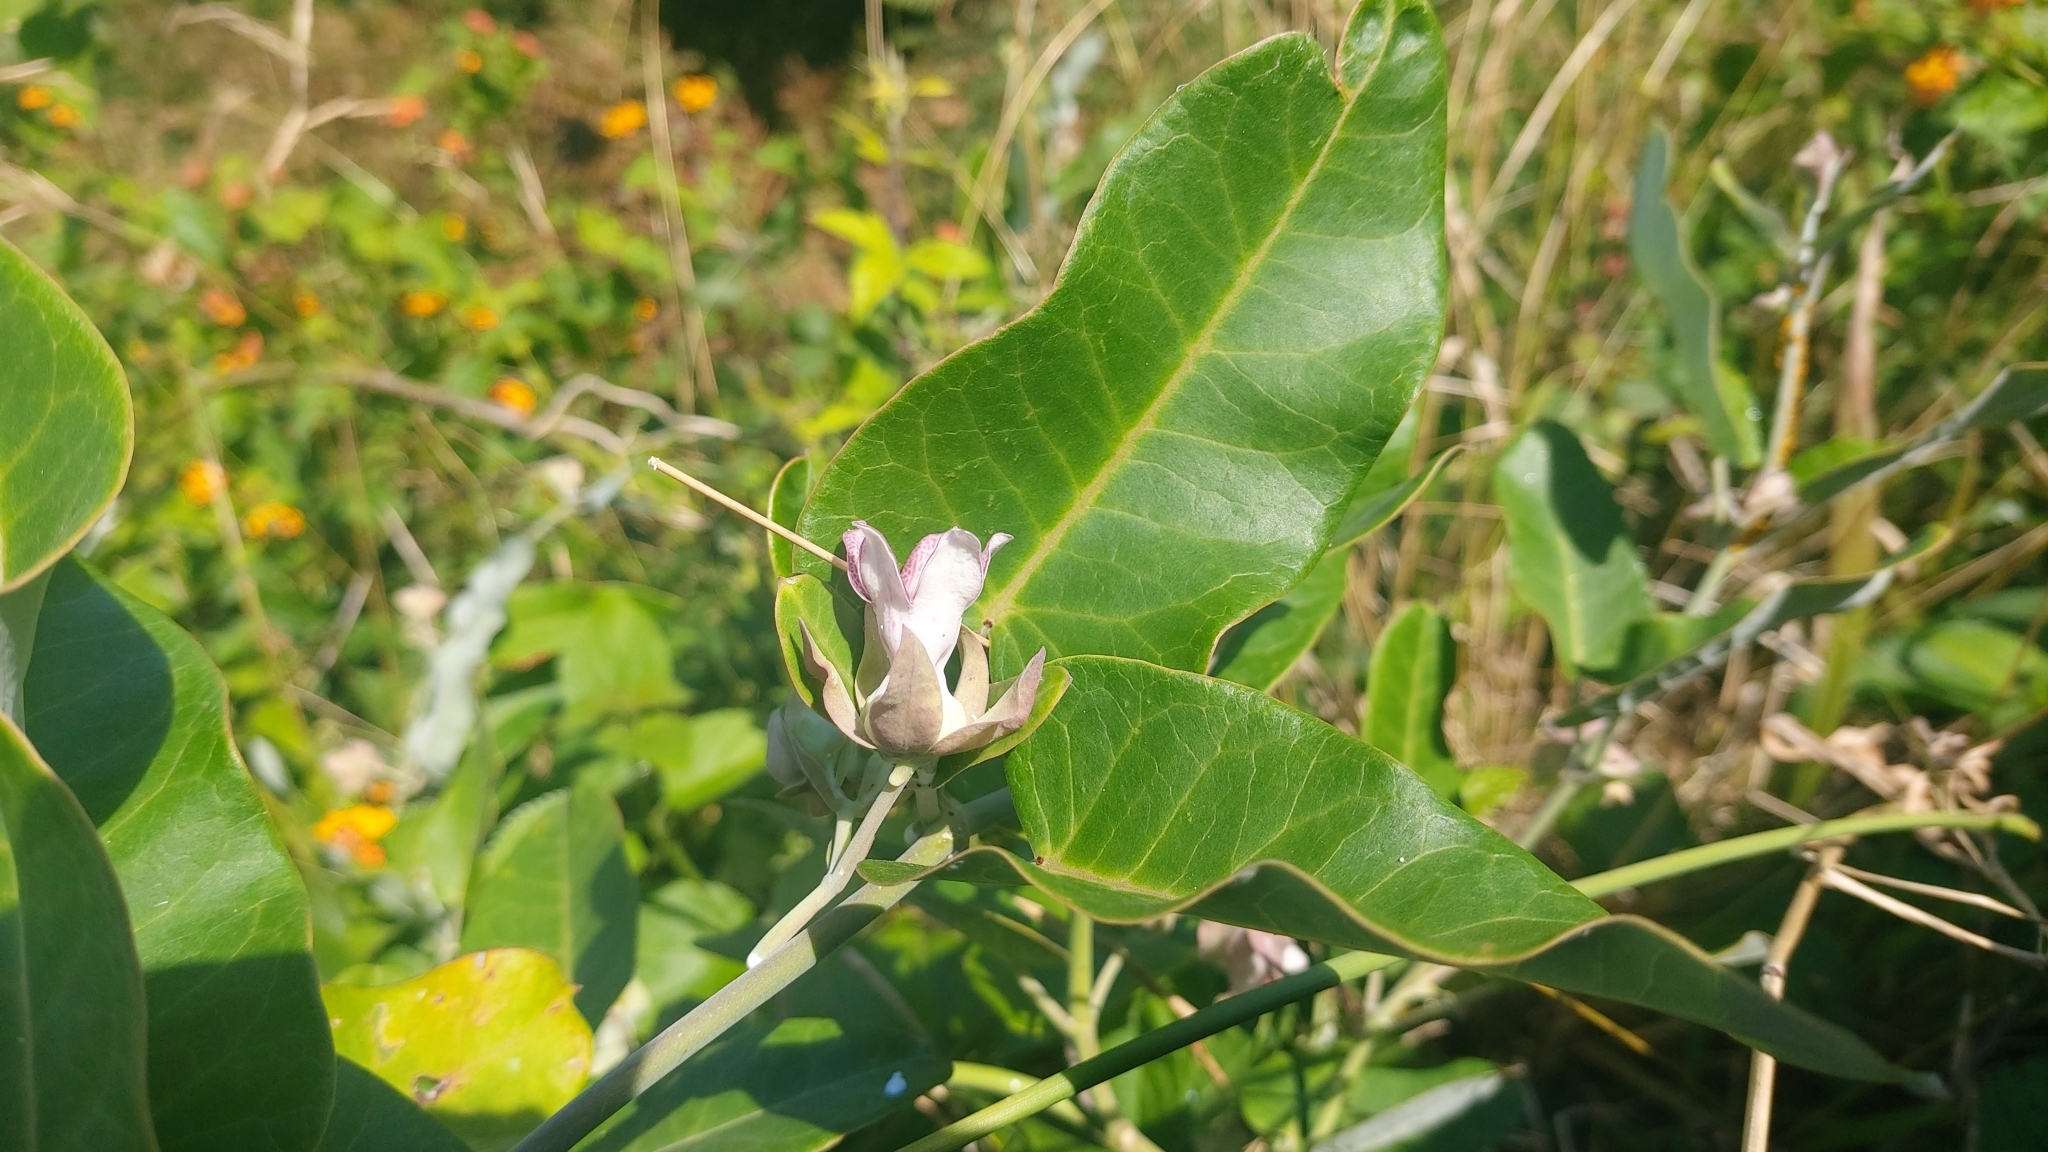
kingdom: Plantae
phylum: Tracheophyta
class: Magnoliopsida
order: Gentianales
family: Apocynaceae
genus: Araujia
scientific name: Araujia sericifera
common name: White bladderflower
